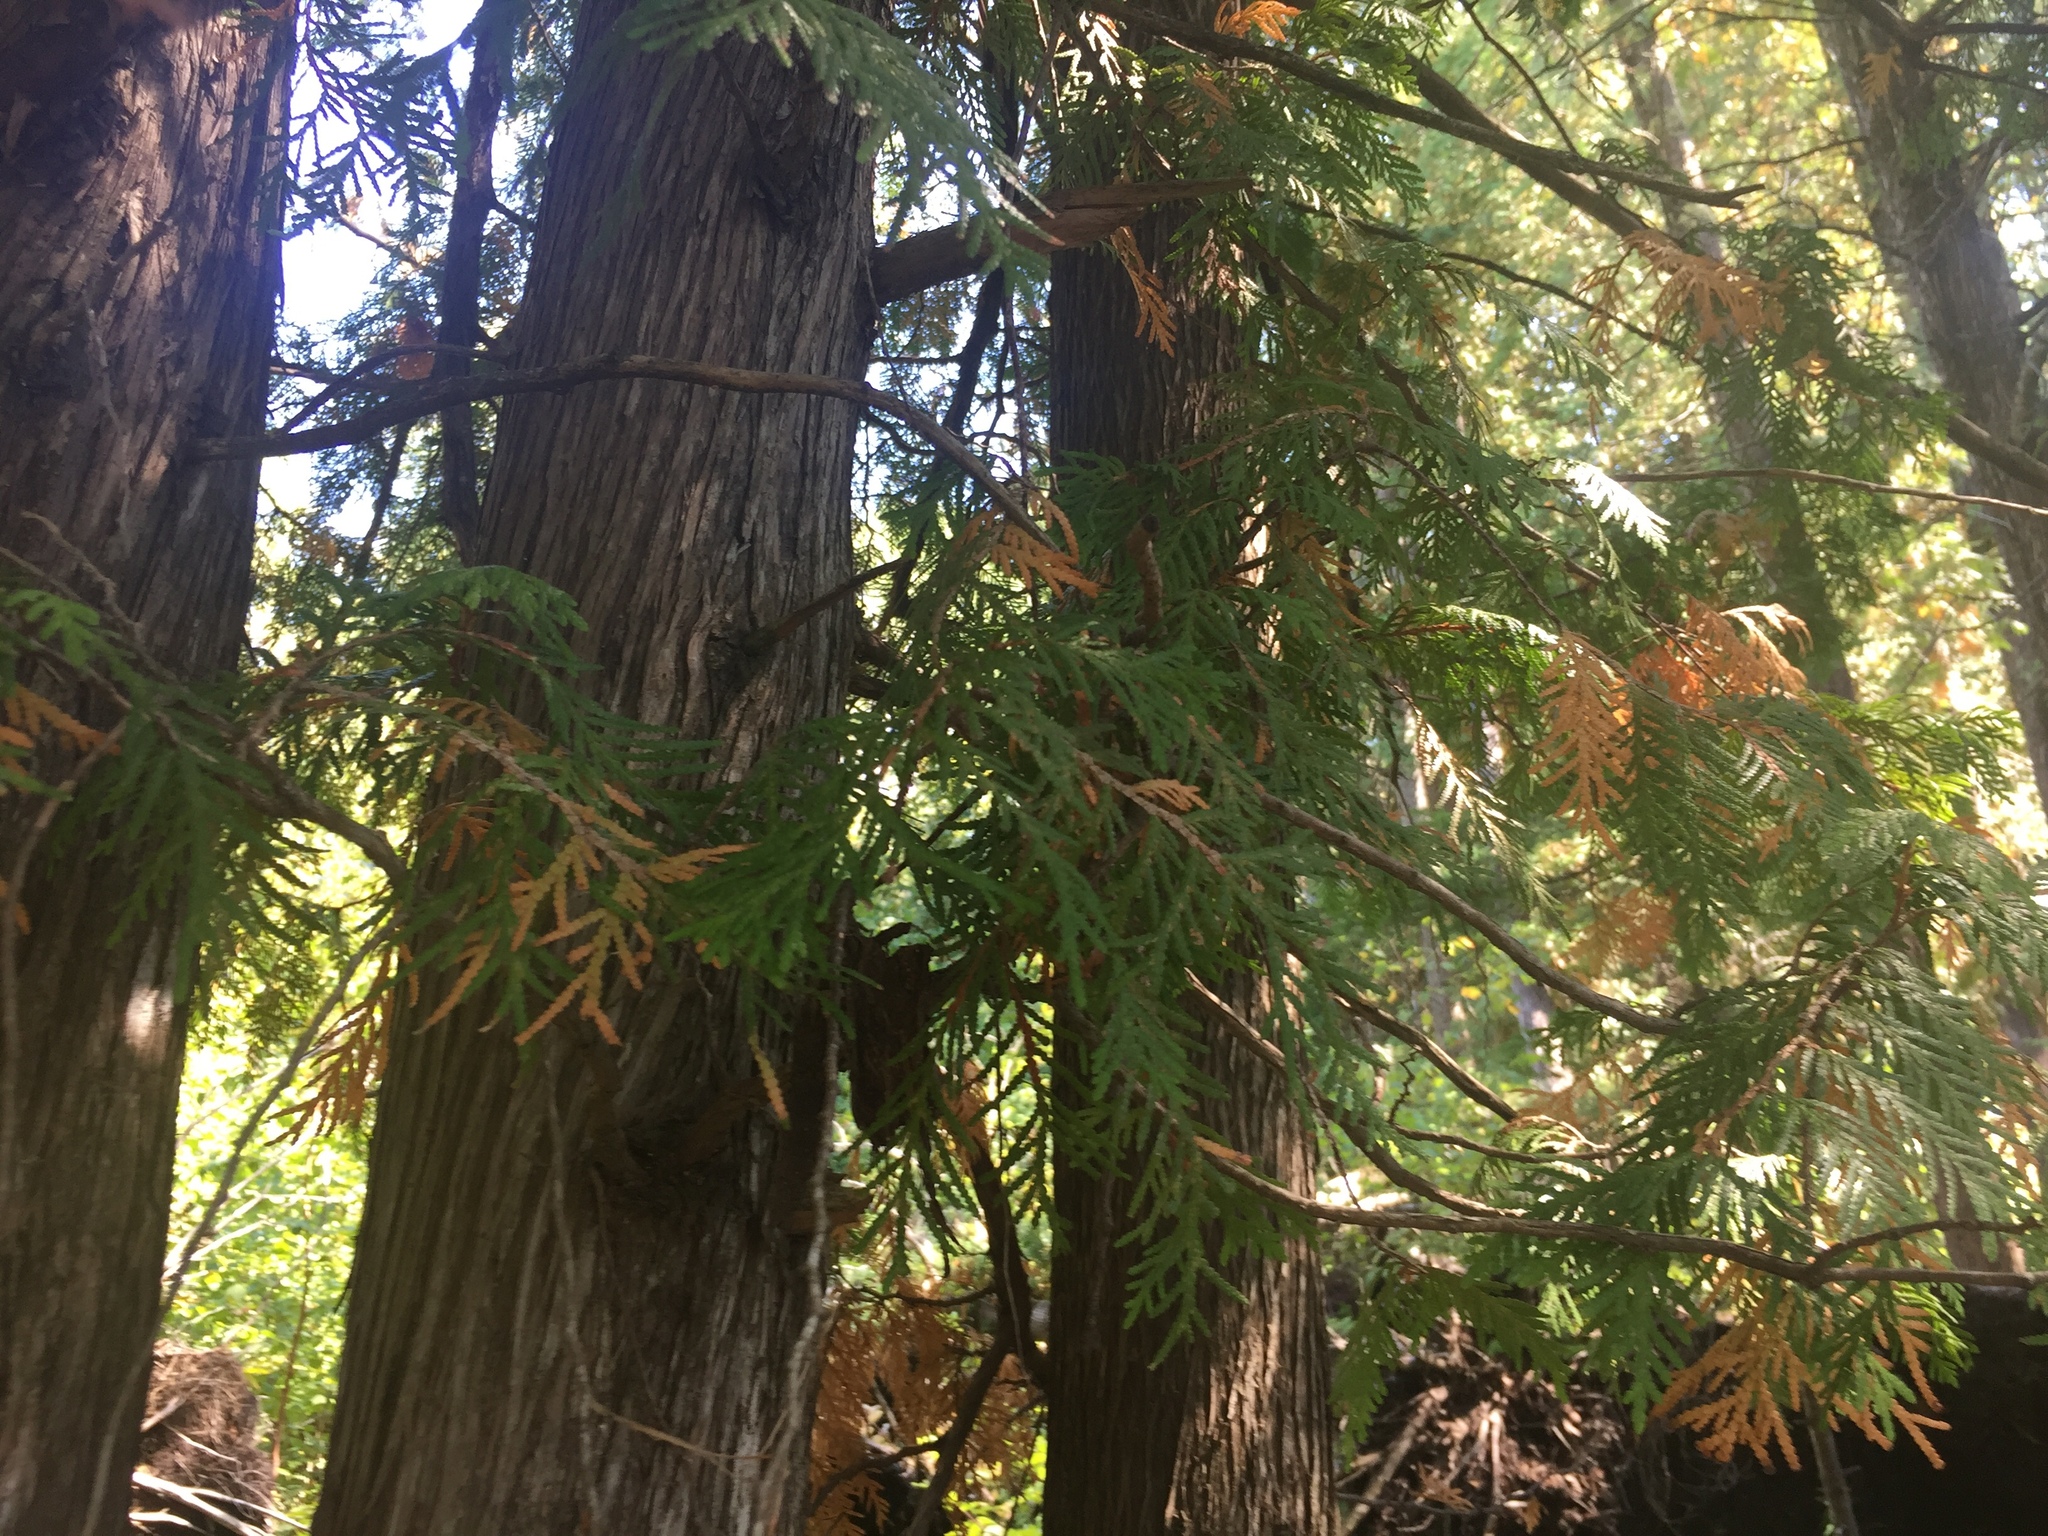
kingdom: Plantae
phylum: Tracheophyta
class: Pinopsida
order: Pinales
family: Cupressaceae
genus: Thuja
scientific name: Thuja occidentalis
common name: Northern white-cedar
